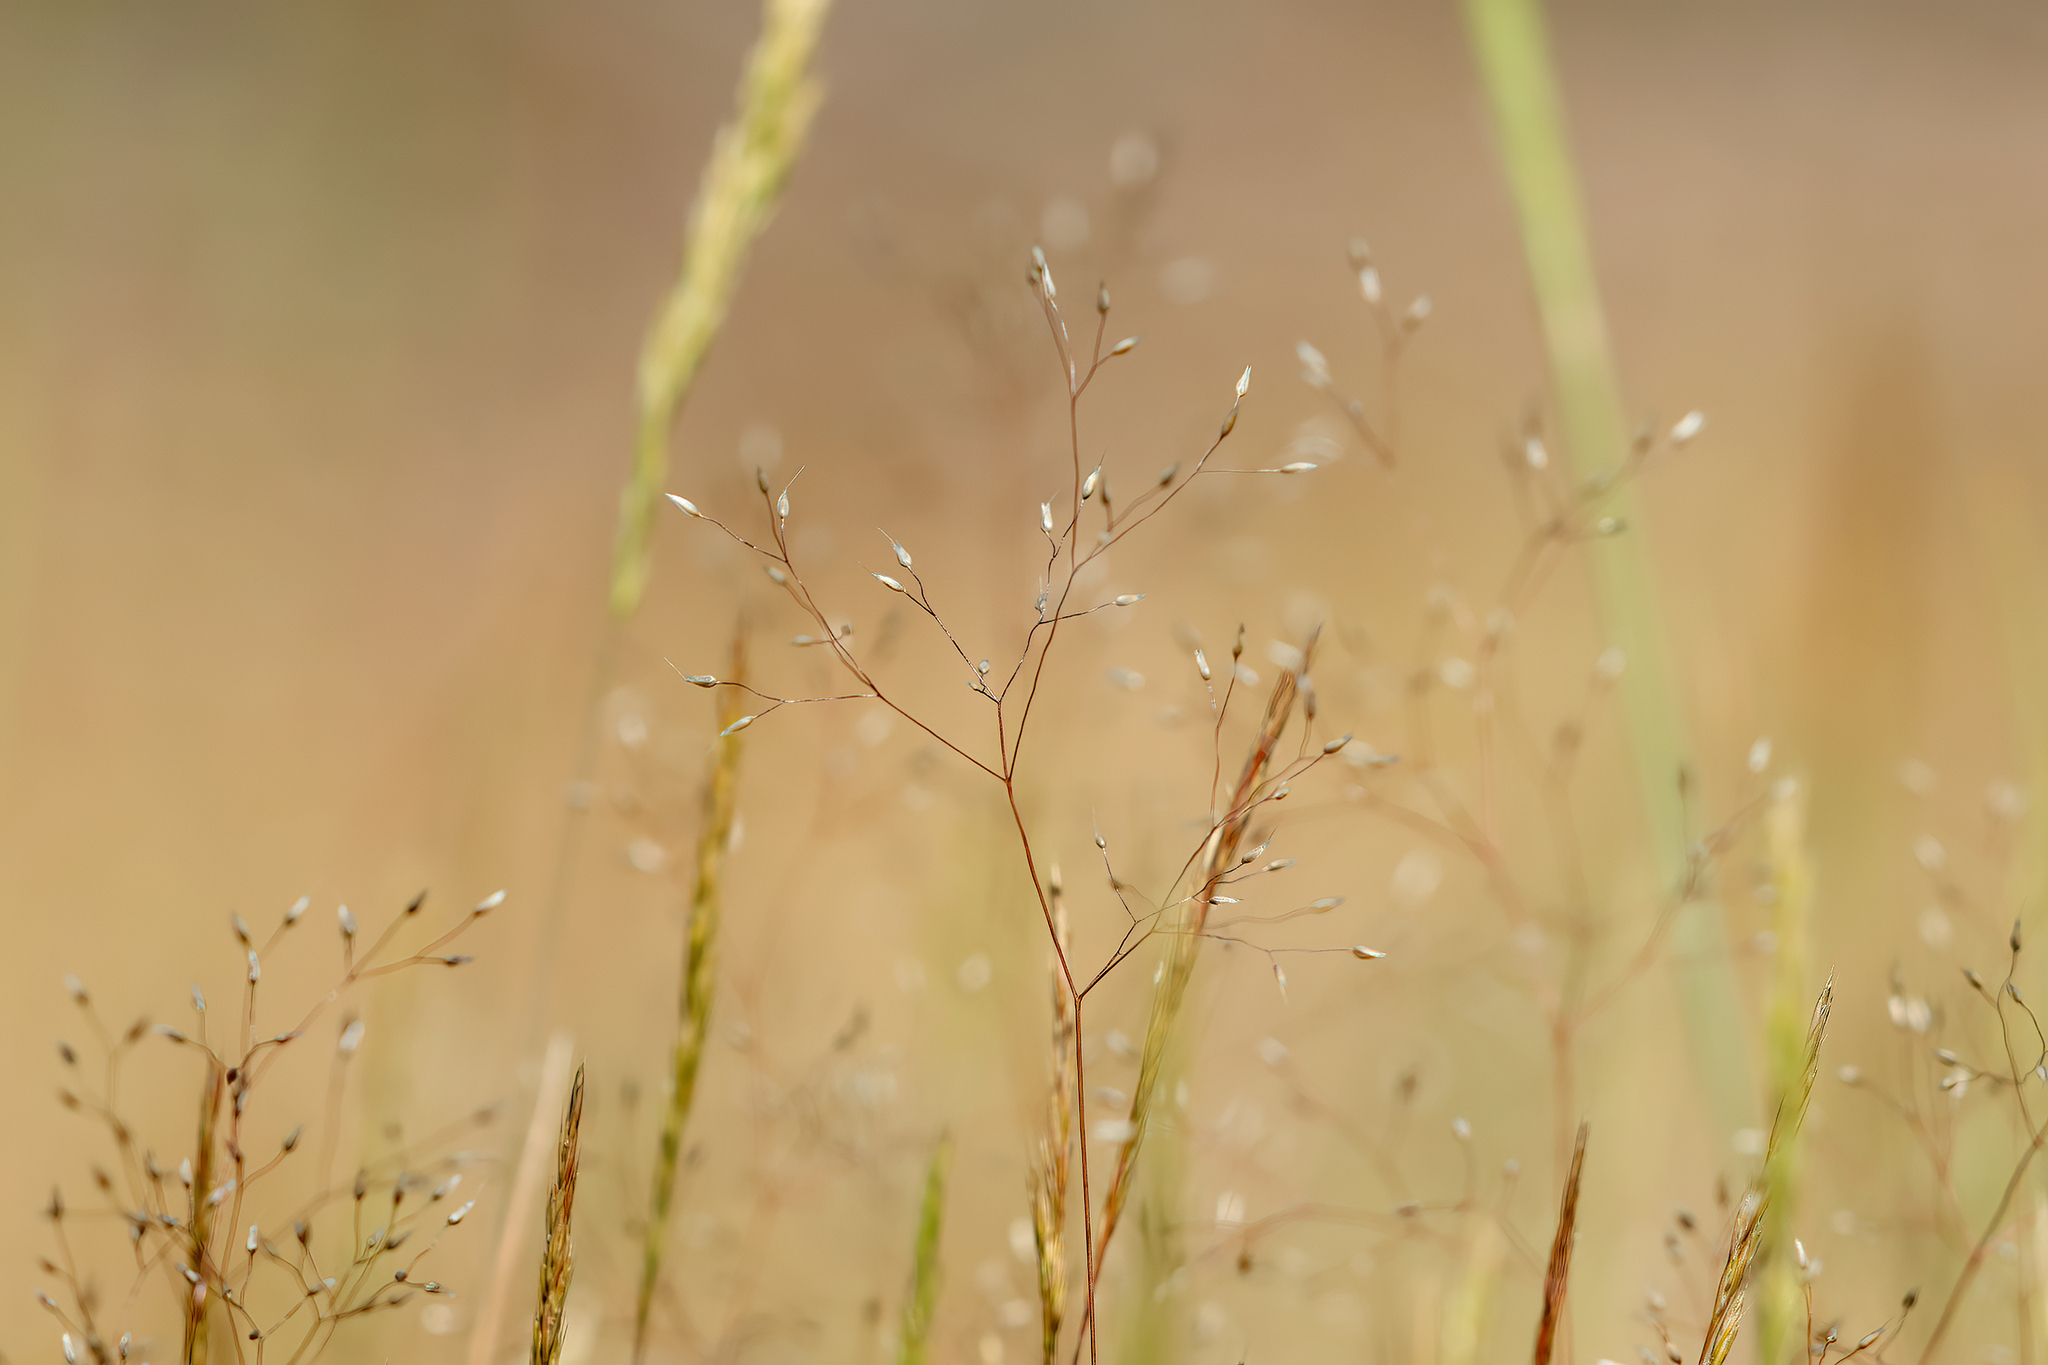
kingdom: Plantae
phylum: Tracheophyta
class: Liliopsida
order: Poales
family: Poaceae
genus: Aira
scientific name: Aira cupaniana
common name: Silver hairgrass
